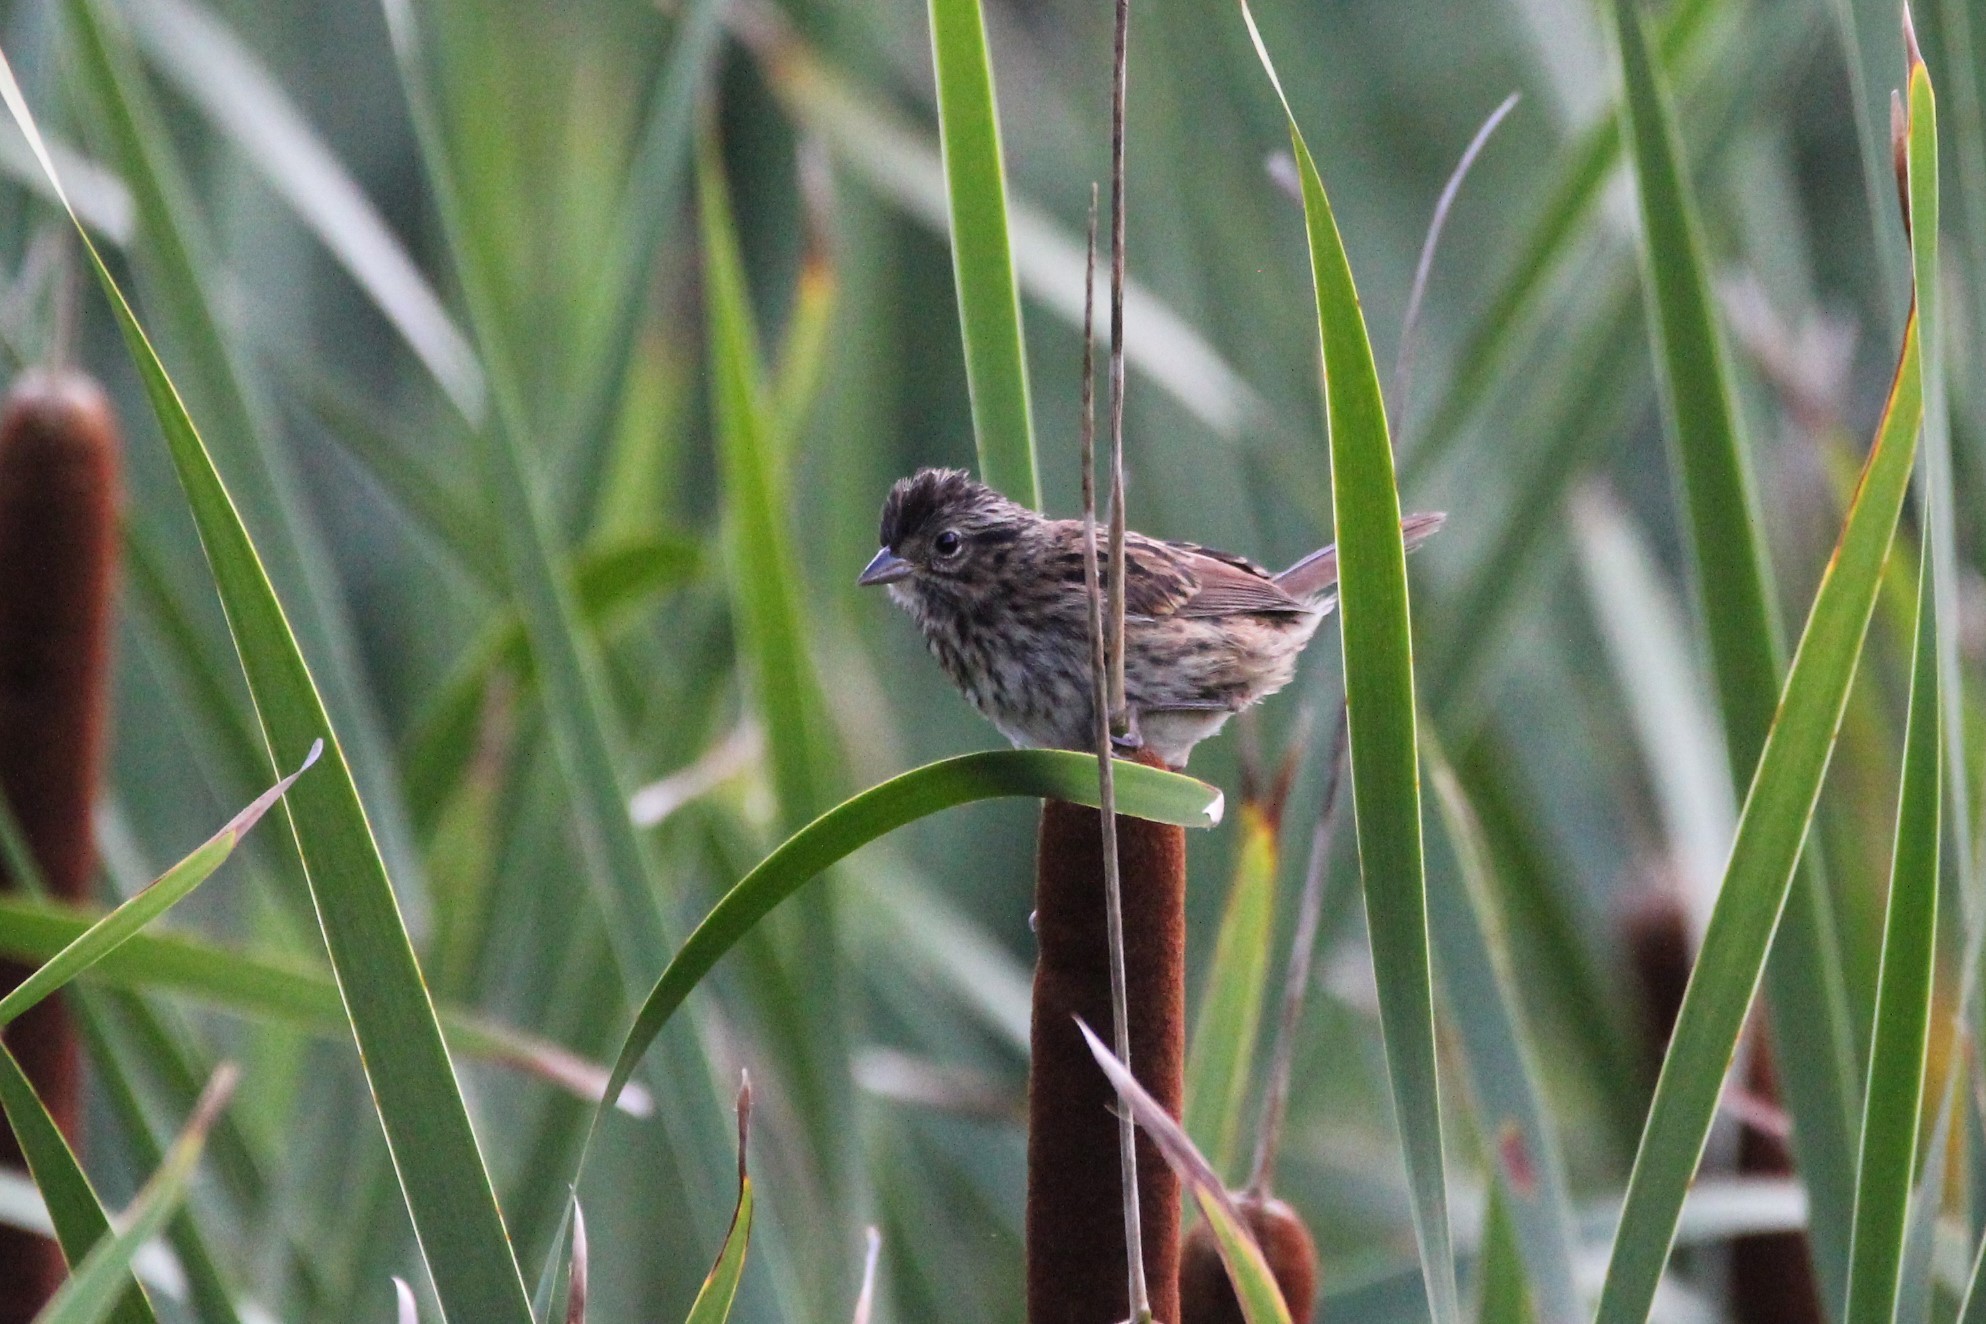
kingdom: Animalia
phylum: Chordata
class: Aves
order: Passeriformes
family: Passerellidae
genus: Melospiza
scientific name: Melospiza melodia
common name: Song sparrow
